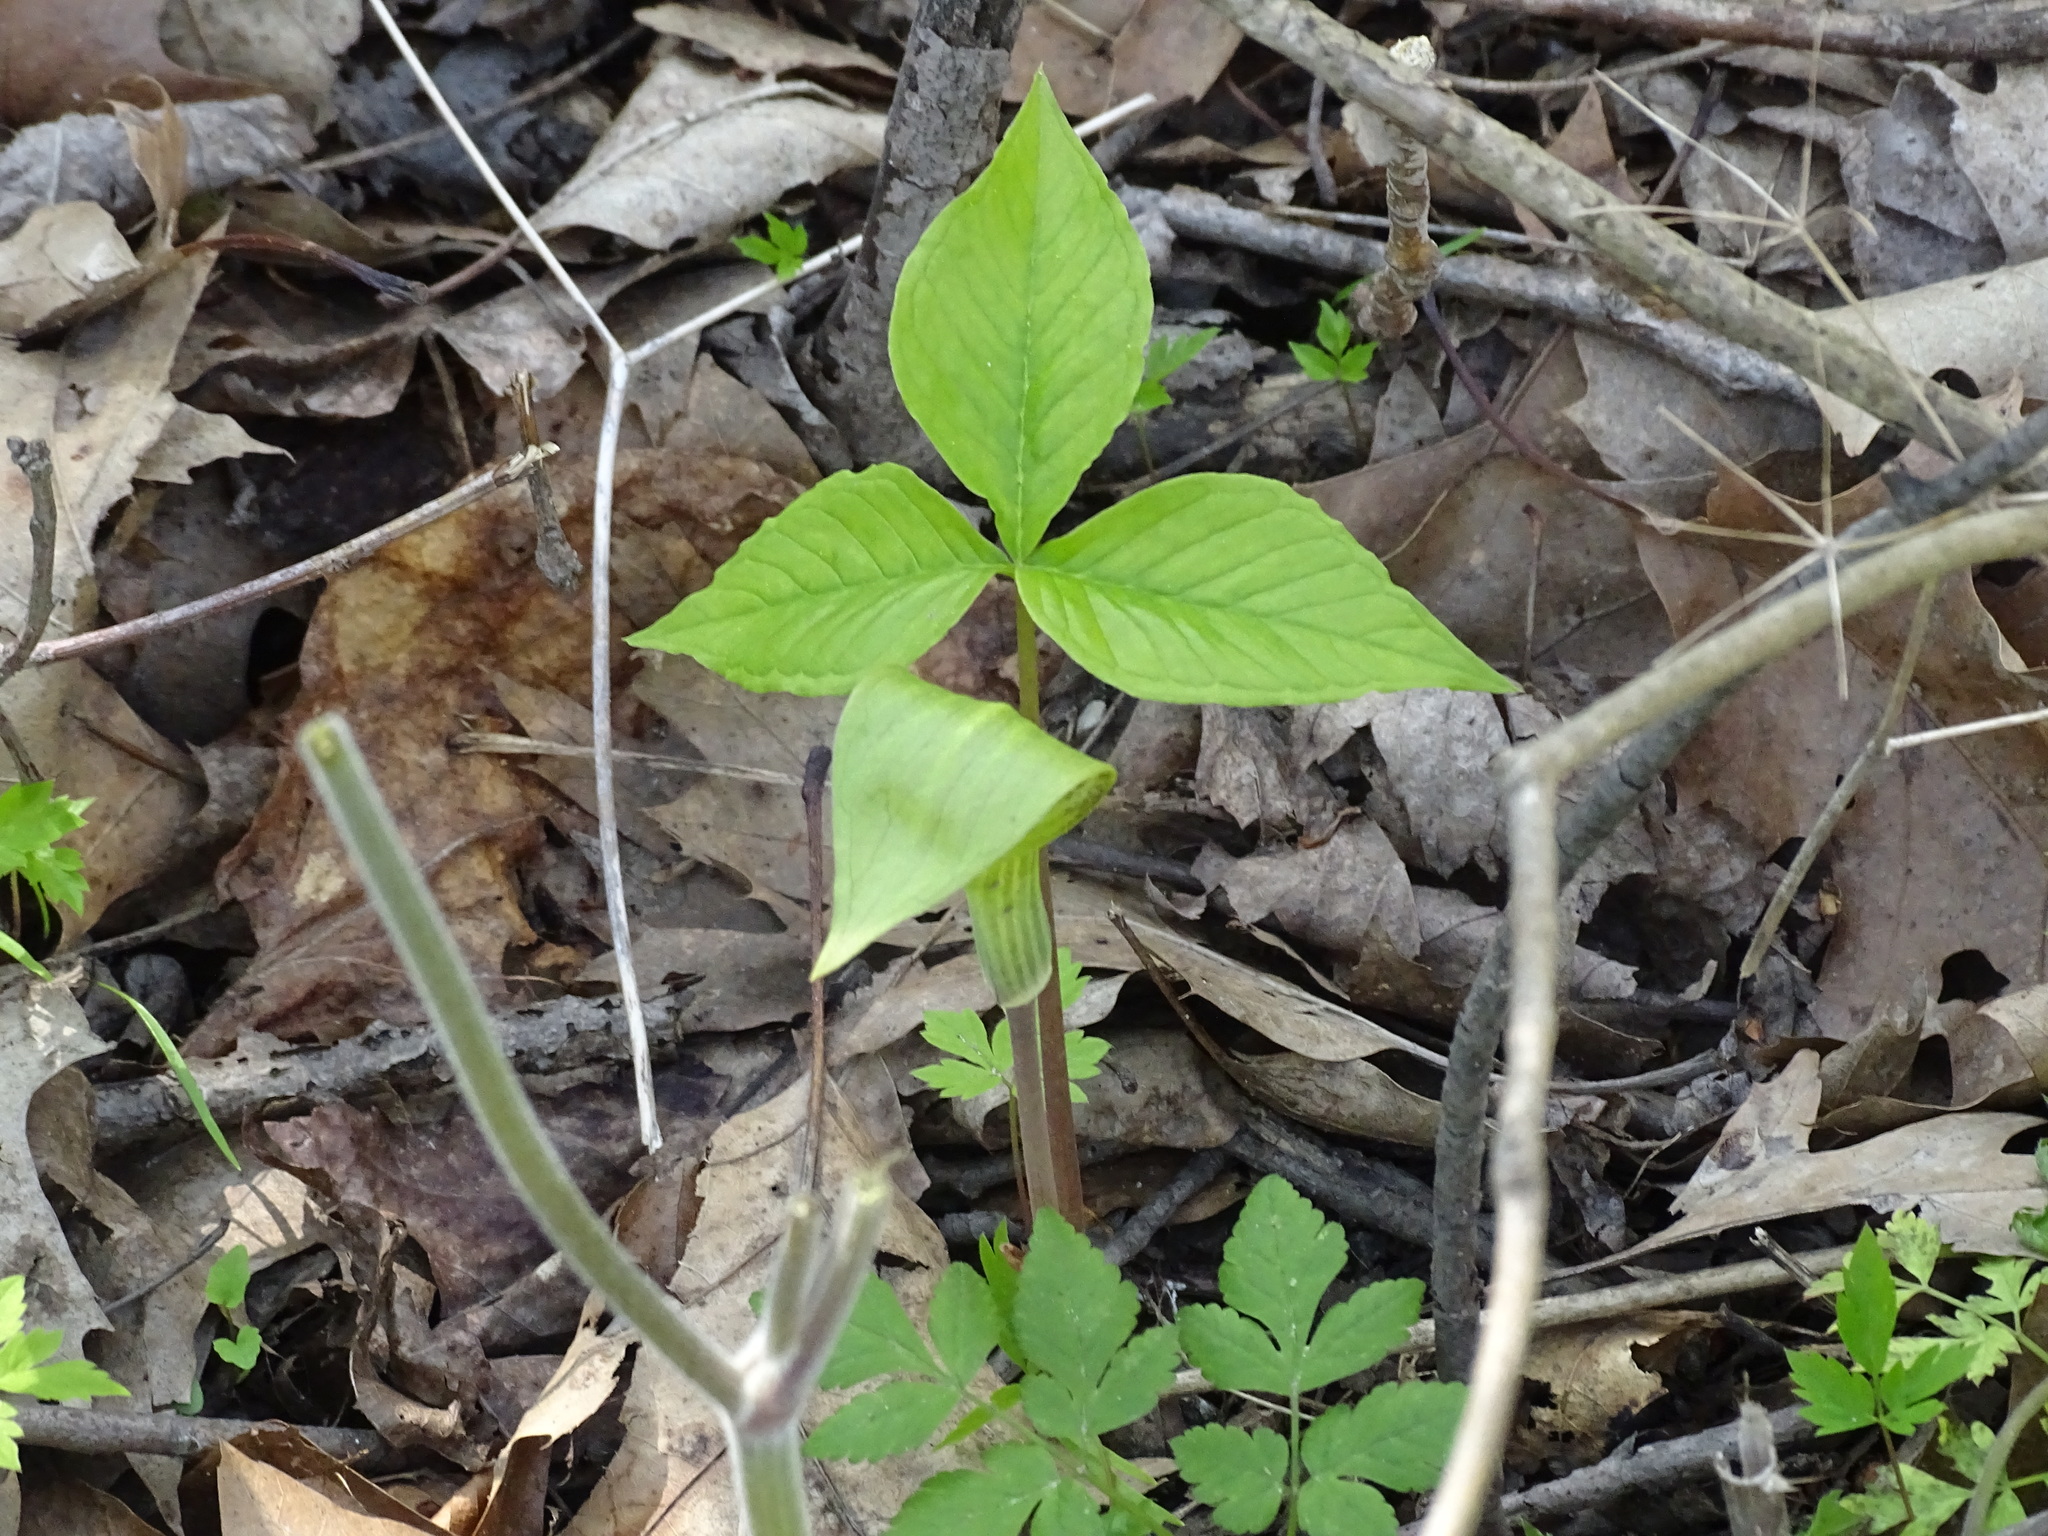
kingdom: Plantae
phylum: Tracheophyta
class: Liliopsida
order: Alismatales
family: Araceae
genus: Arisaema
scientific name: Arisaema triphyllum
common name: Jack-in-the-pulpit
